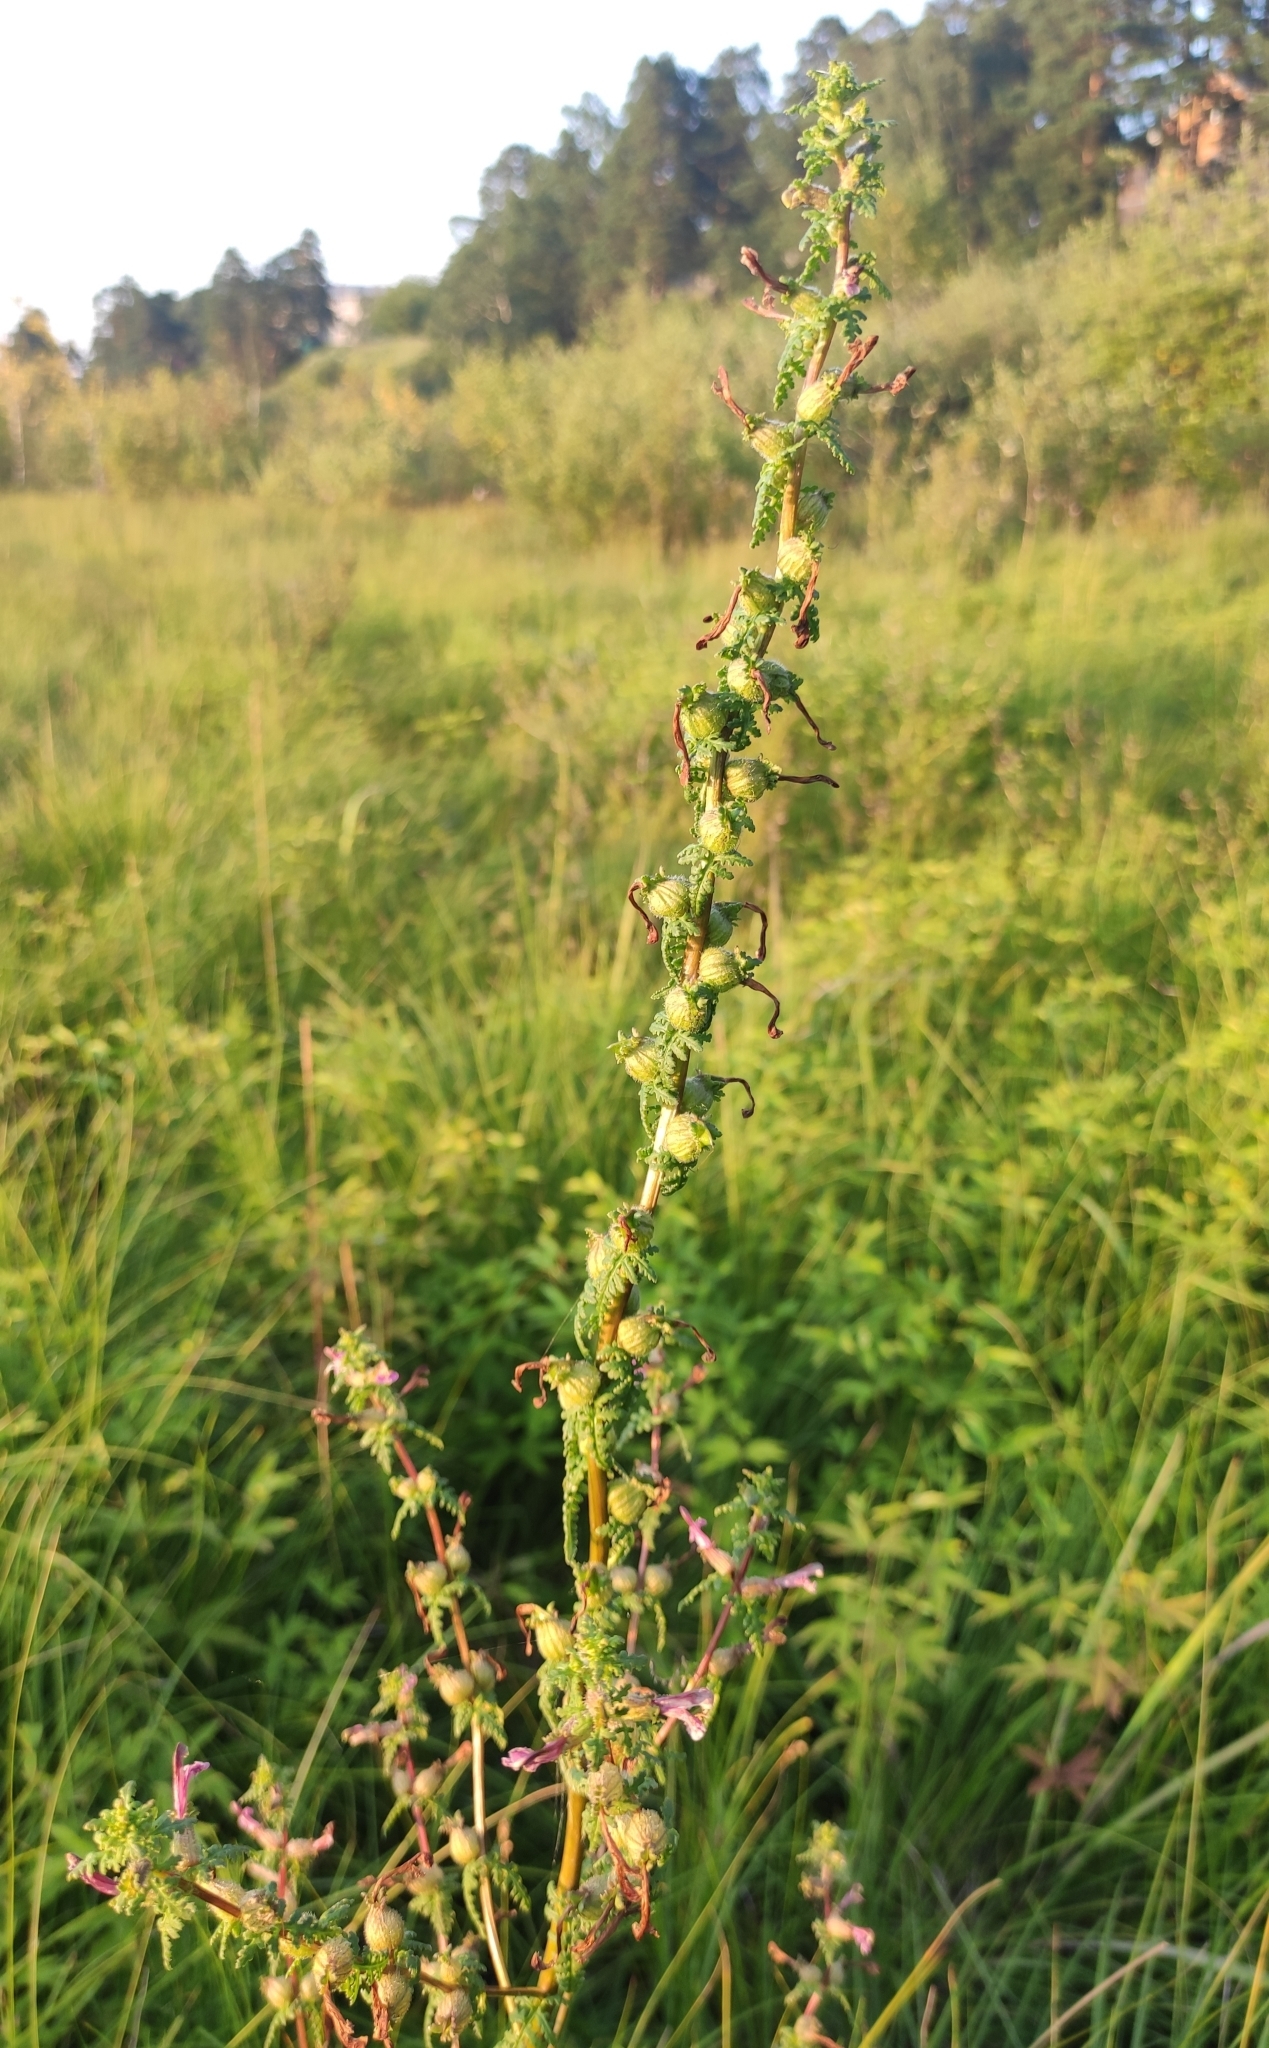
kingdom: Plantae
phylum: Tracheophyta
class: Magnoliopsida
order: Lamiales
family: Orobanchaceae
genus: Pedicularis
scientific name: Pedicularis karoi
